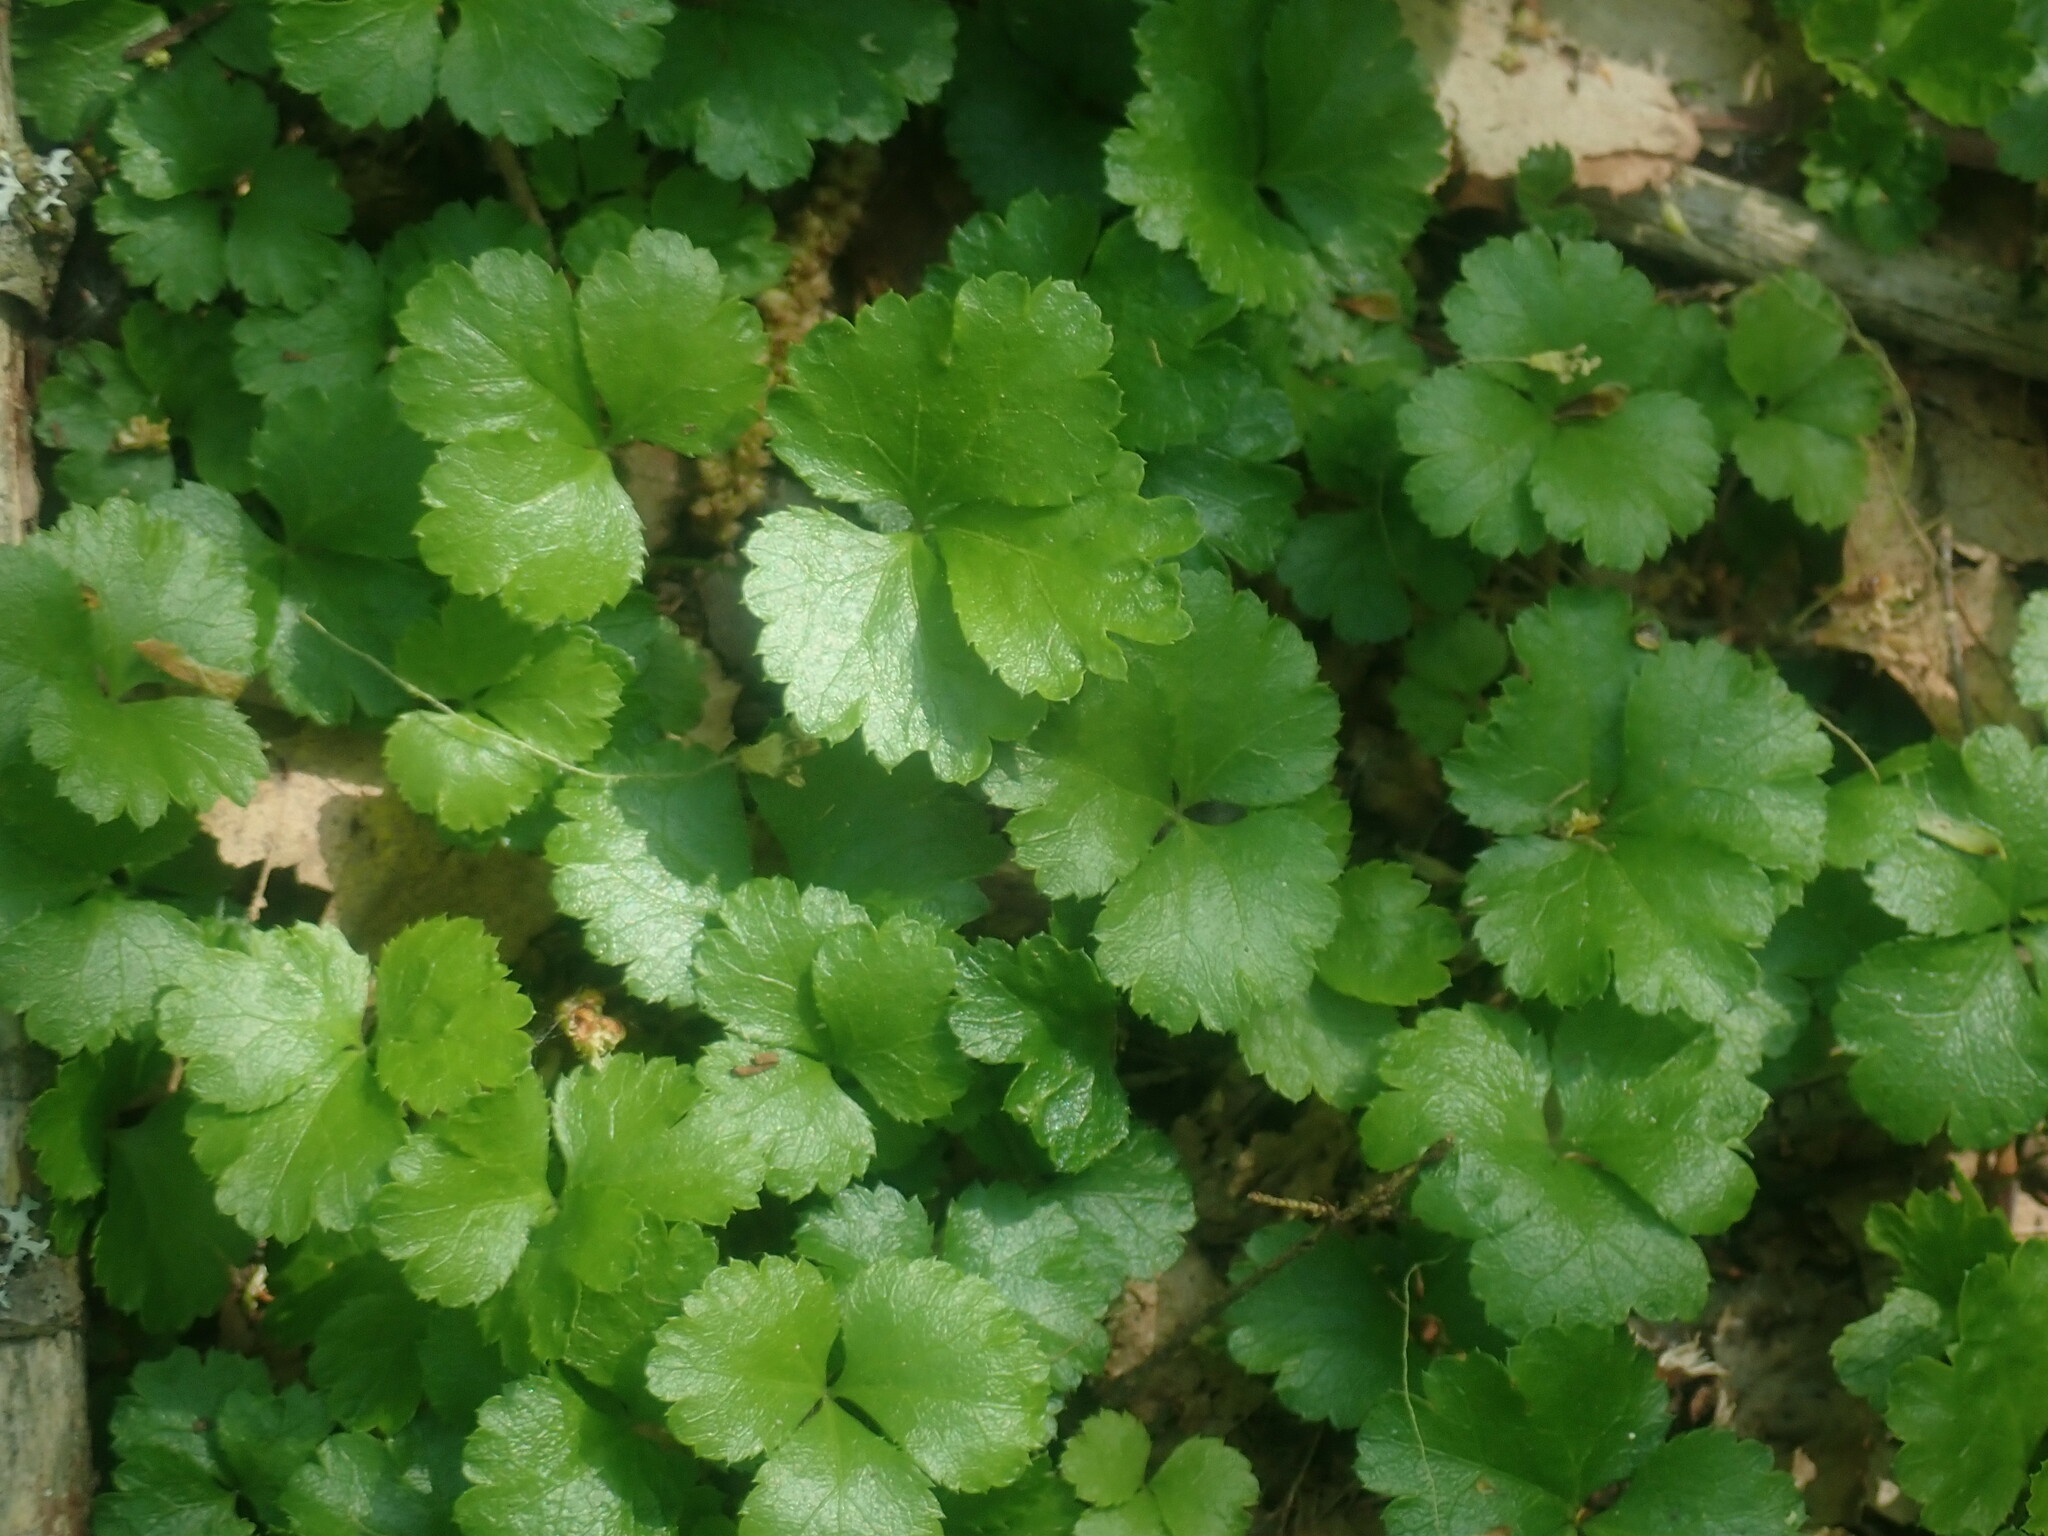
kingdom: Plantae
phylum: Tracheophyta
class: Magnoliopsida
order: Ranunculales
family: Ranunculaceae
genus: Coptis
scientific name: Coptis trifolia
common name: Canker-root
